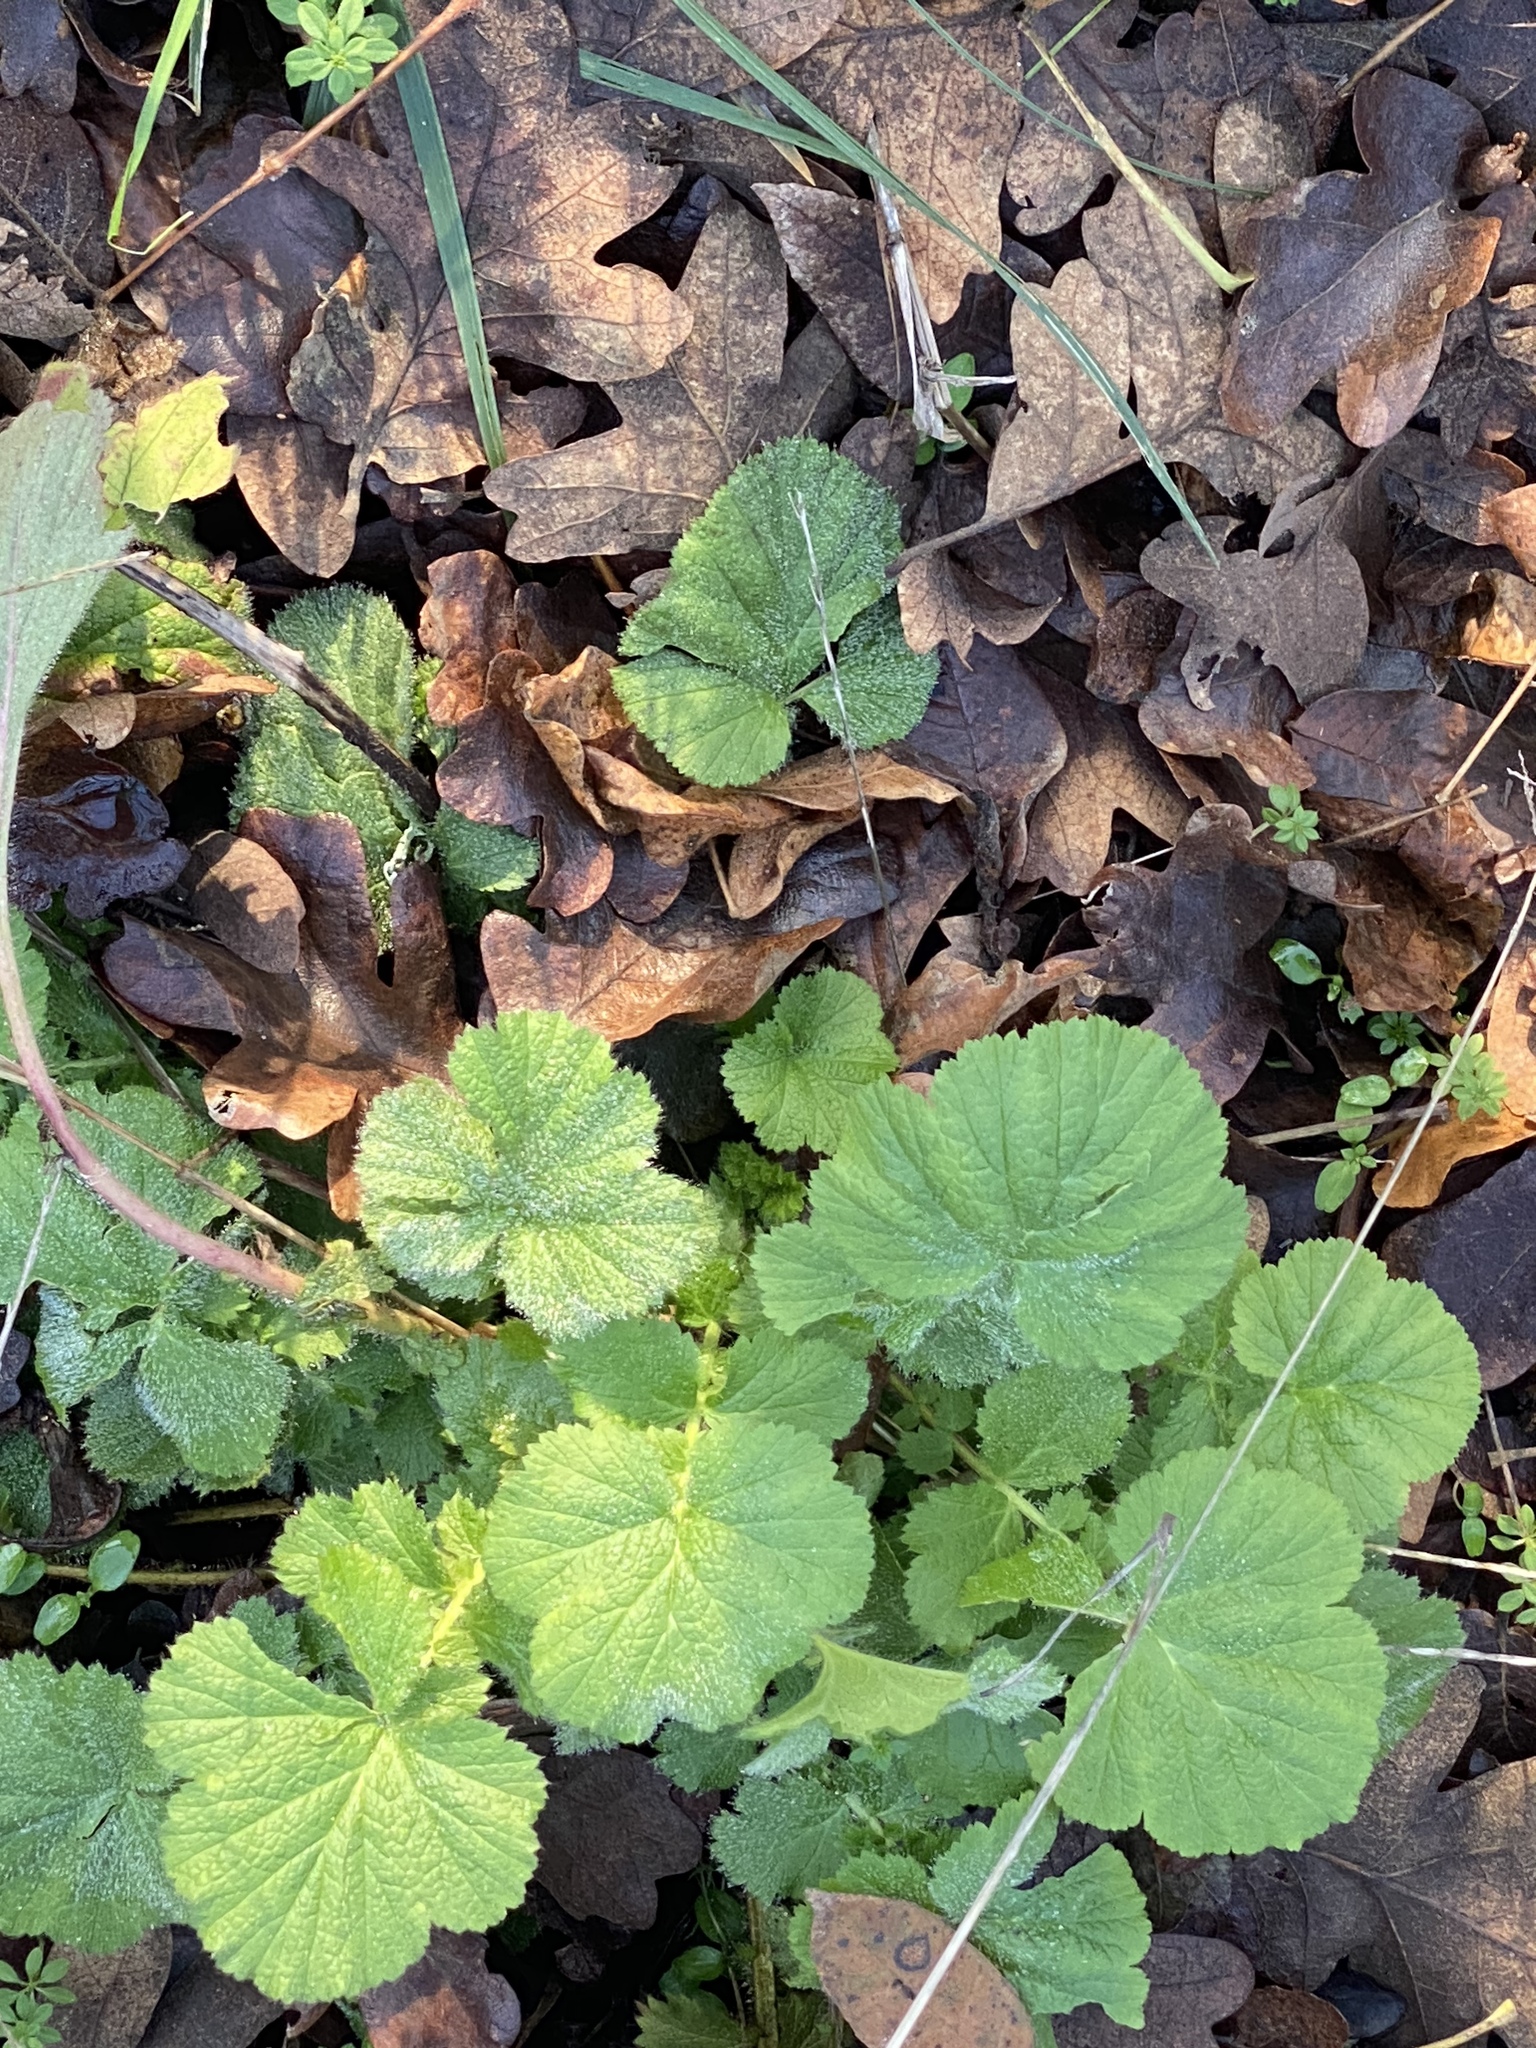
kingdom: Plantae
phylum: Tracheophyta
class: Magnoliopsida
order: Rosales
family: Rosaceae
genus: Geum
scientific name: Geum macrophyllum
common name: Large-leaved avens
